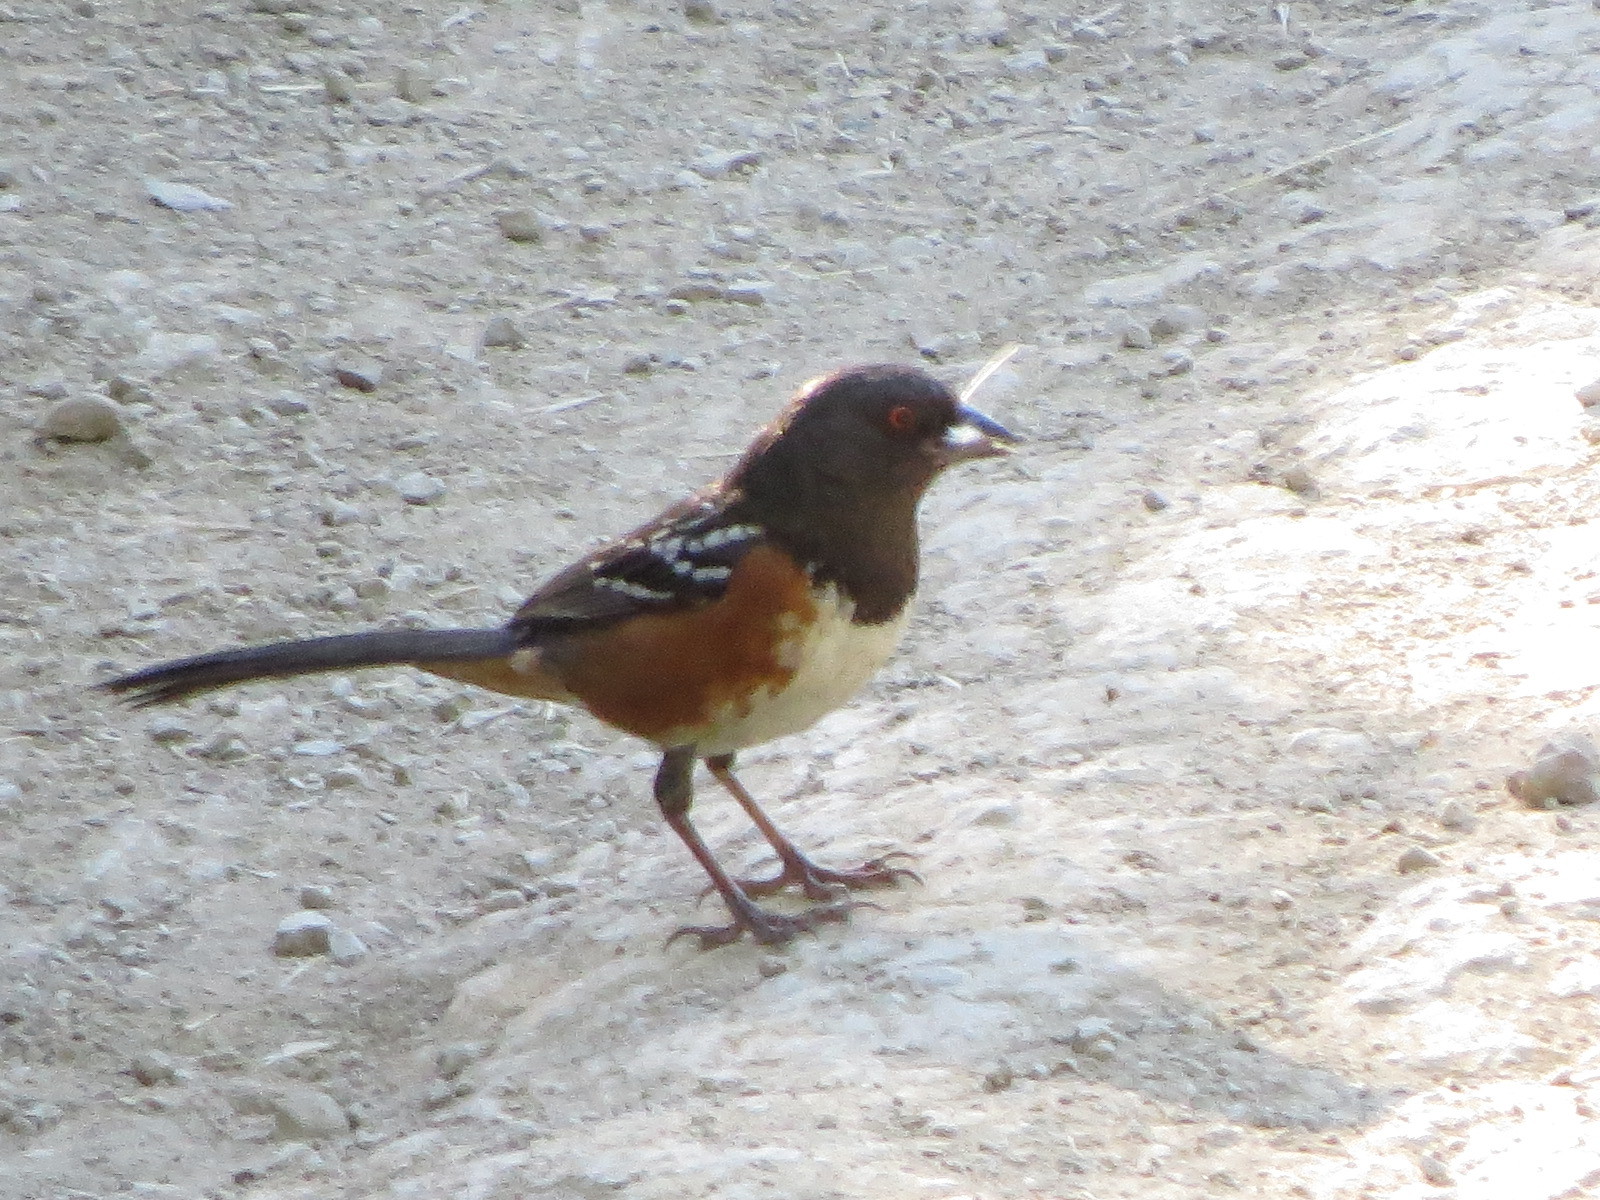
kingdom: Animalia
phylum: Chordata
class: Aves
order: Passeriformes
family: Passerellidae
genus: Pipilo
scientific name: Pipilo maculatus
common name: Spotted towhee
